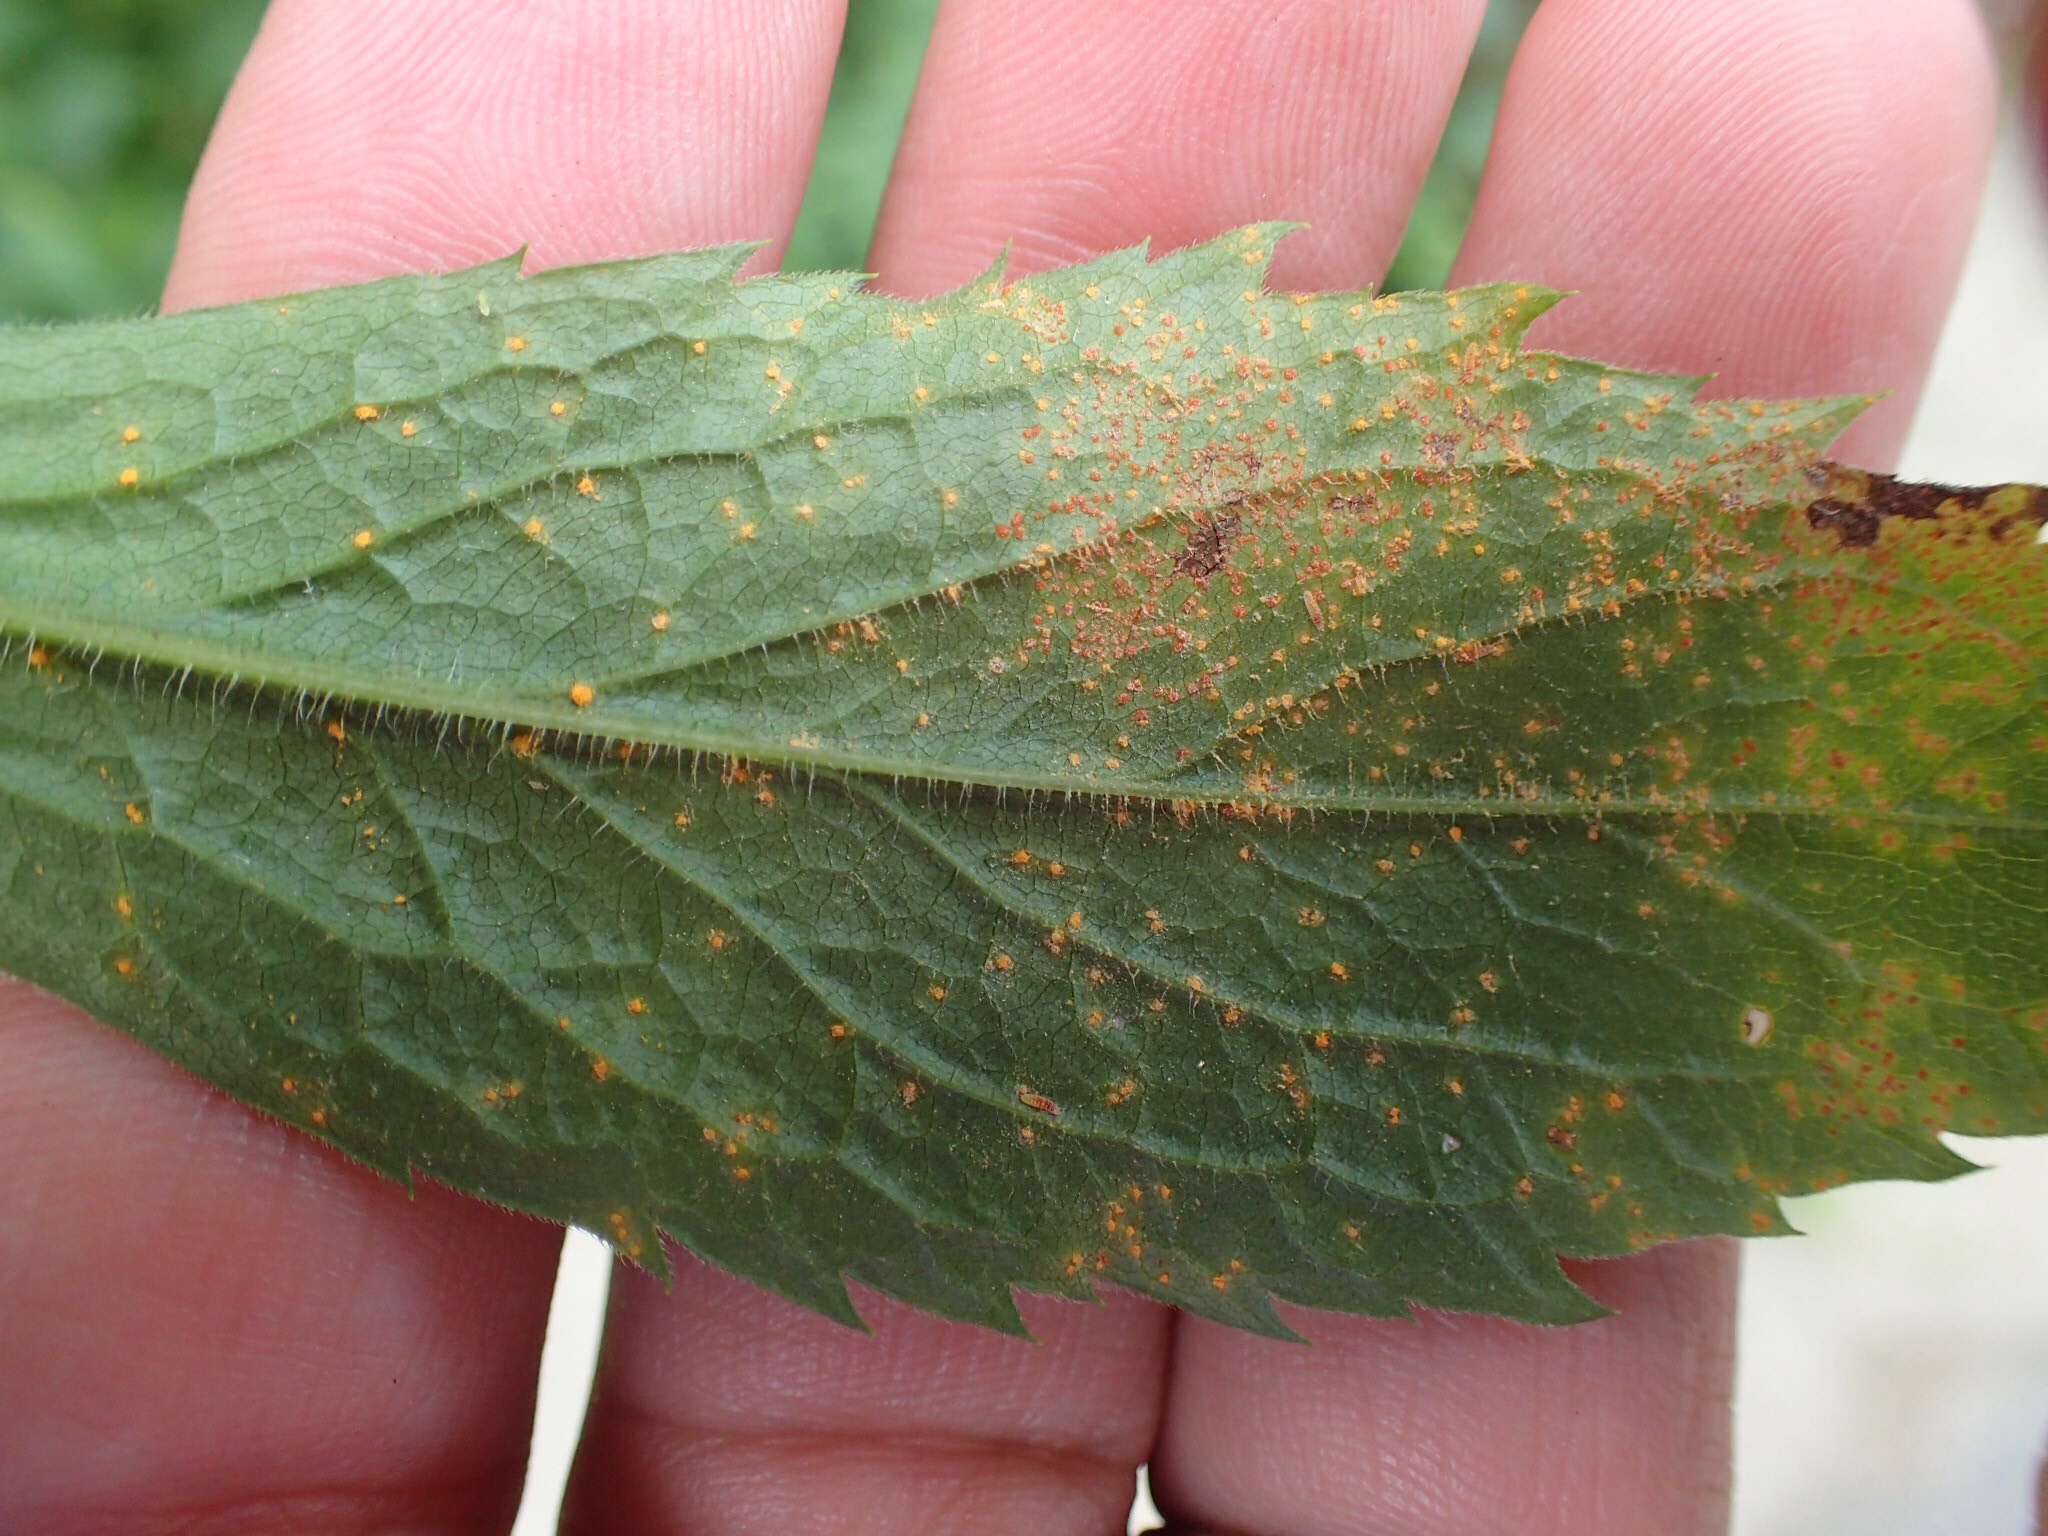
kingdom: Plantae
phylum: Tracheophyta
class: Magnoliopsida
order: Asterales
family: Asteraceae
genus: Solidago
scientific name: Solidago rugosa
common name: Rough-stemmed goldenrod
